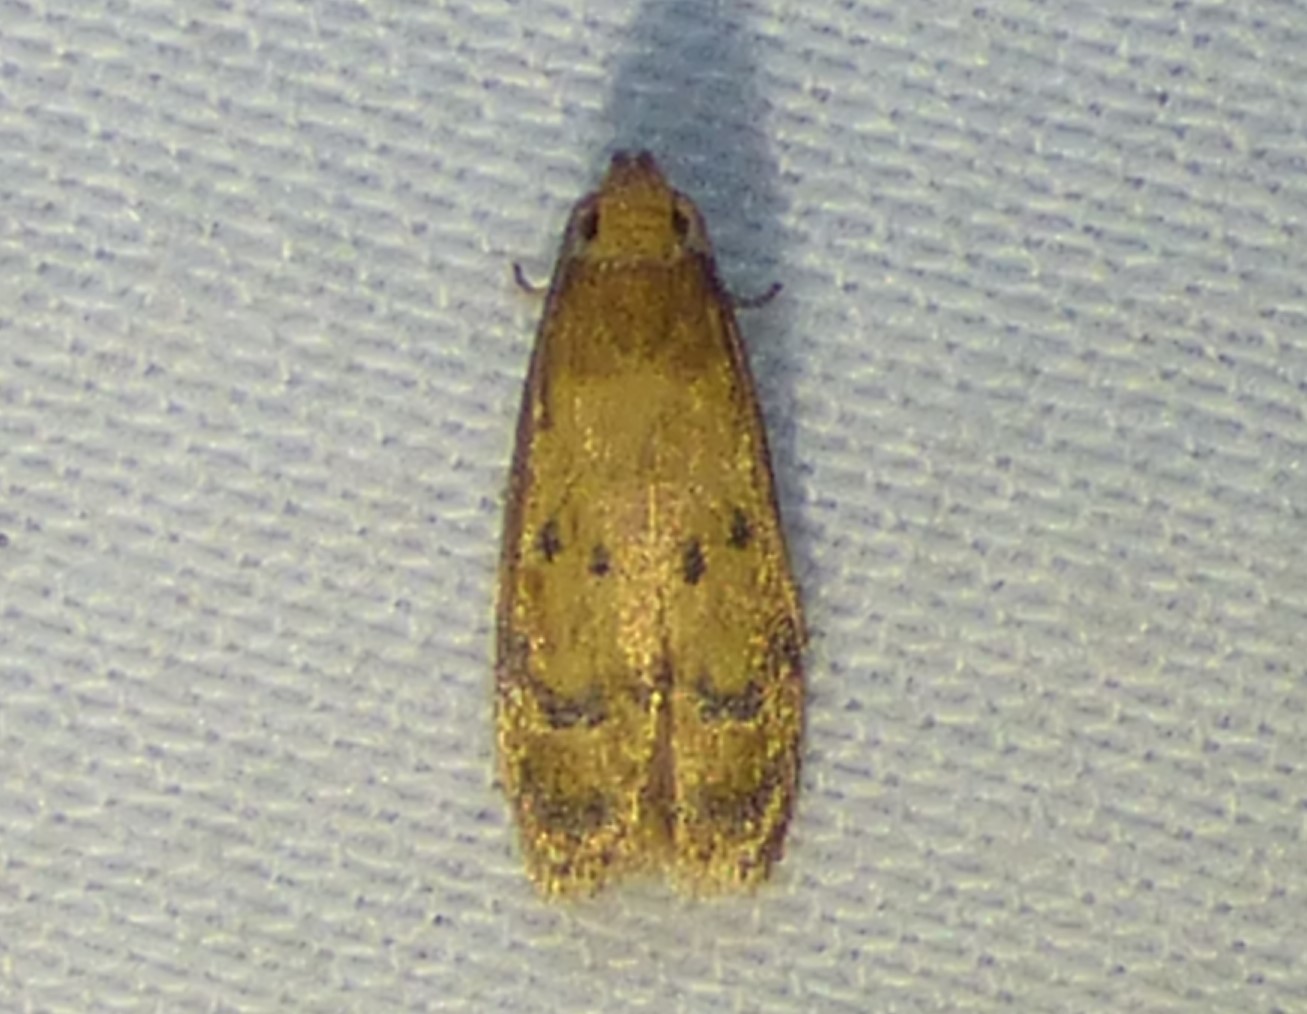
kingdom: Animalia
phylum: Arthropoda
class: Insecta
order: Lepidoptera
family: Autostichidae
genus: Gerdana
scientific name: Gerdana caritella
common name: Gerdana moth
